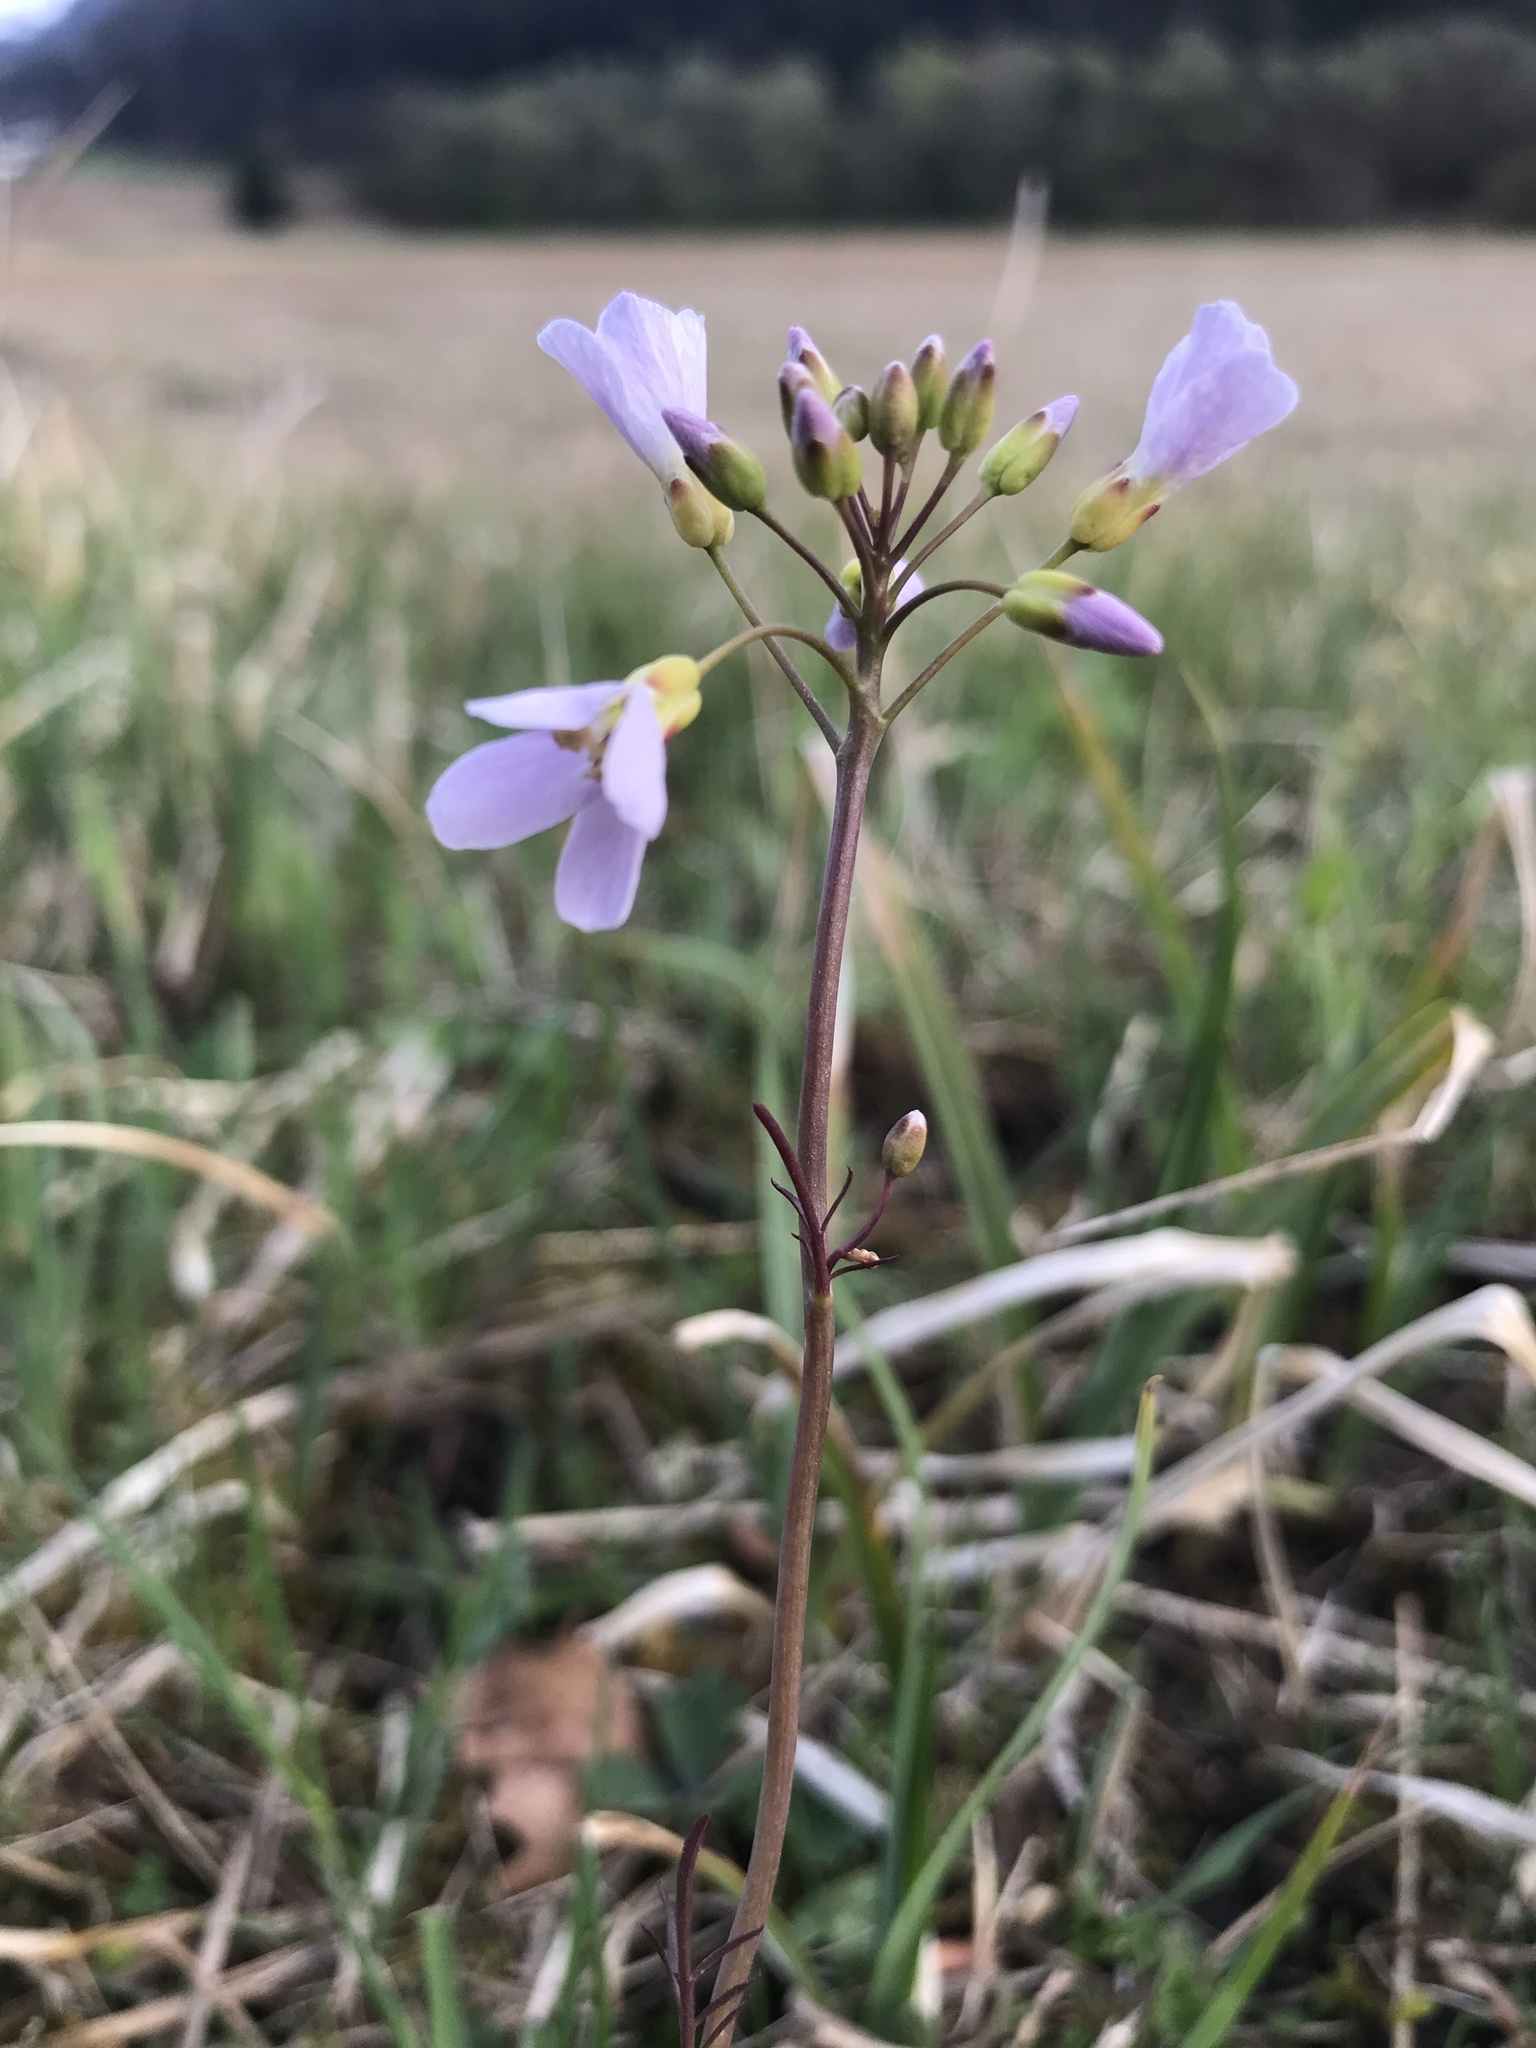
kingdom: Plantae
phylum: Tracheophyta
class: Magnoliopsida
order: Brassicales
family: Brassicaceae
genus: Cardamine
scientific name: Cardamine pratensis
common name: Cuckoo flower
